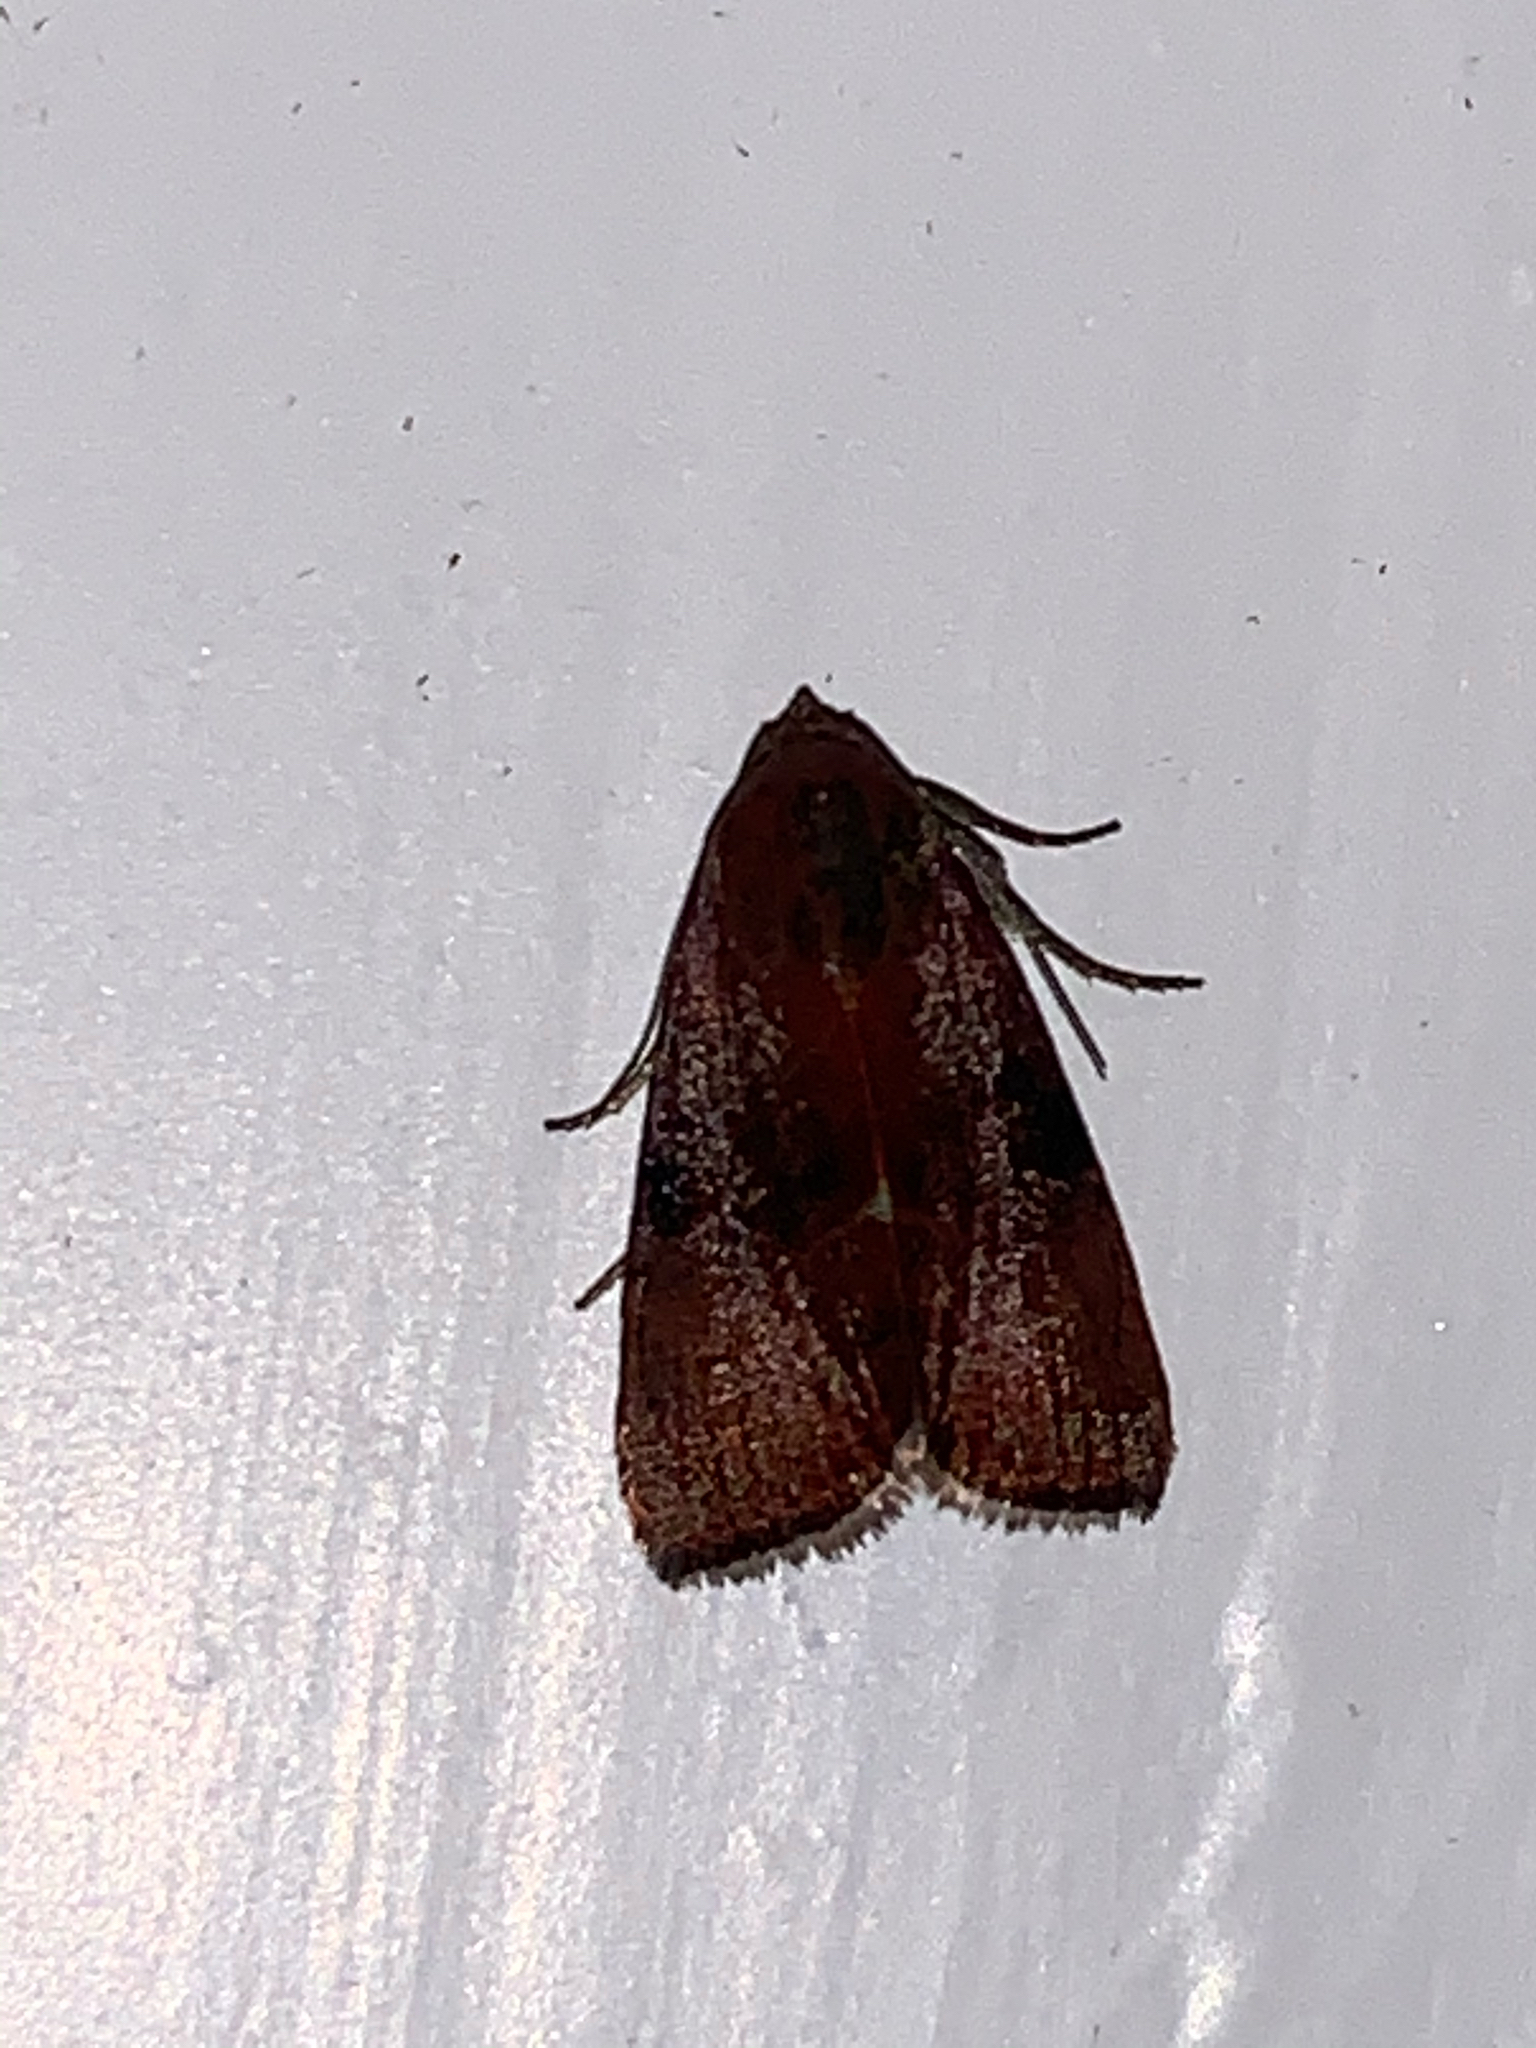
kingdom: Animalia
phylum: Arthropoda
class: Insecta
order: Lepidoptera
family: Noctuidae
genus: Galgula
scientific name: Galgula partita
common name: Wedgeling
